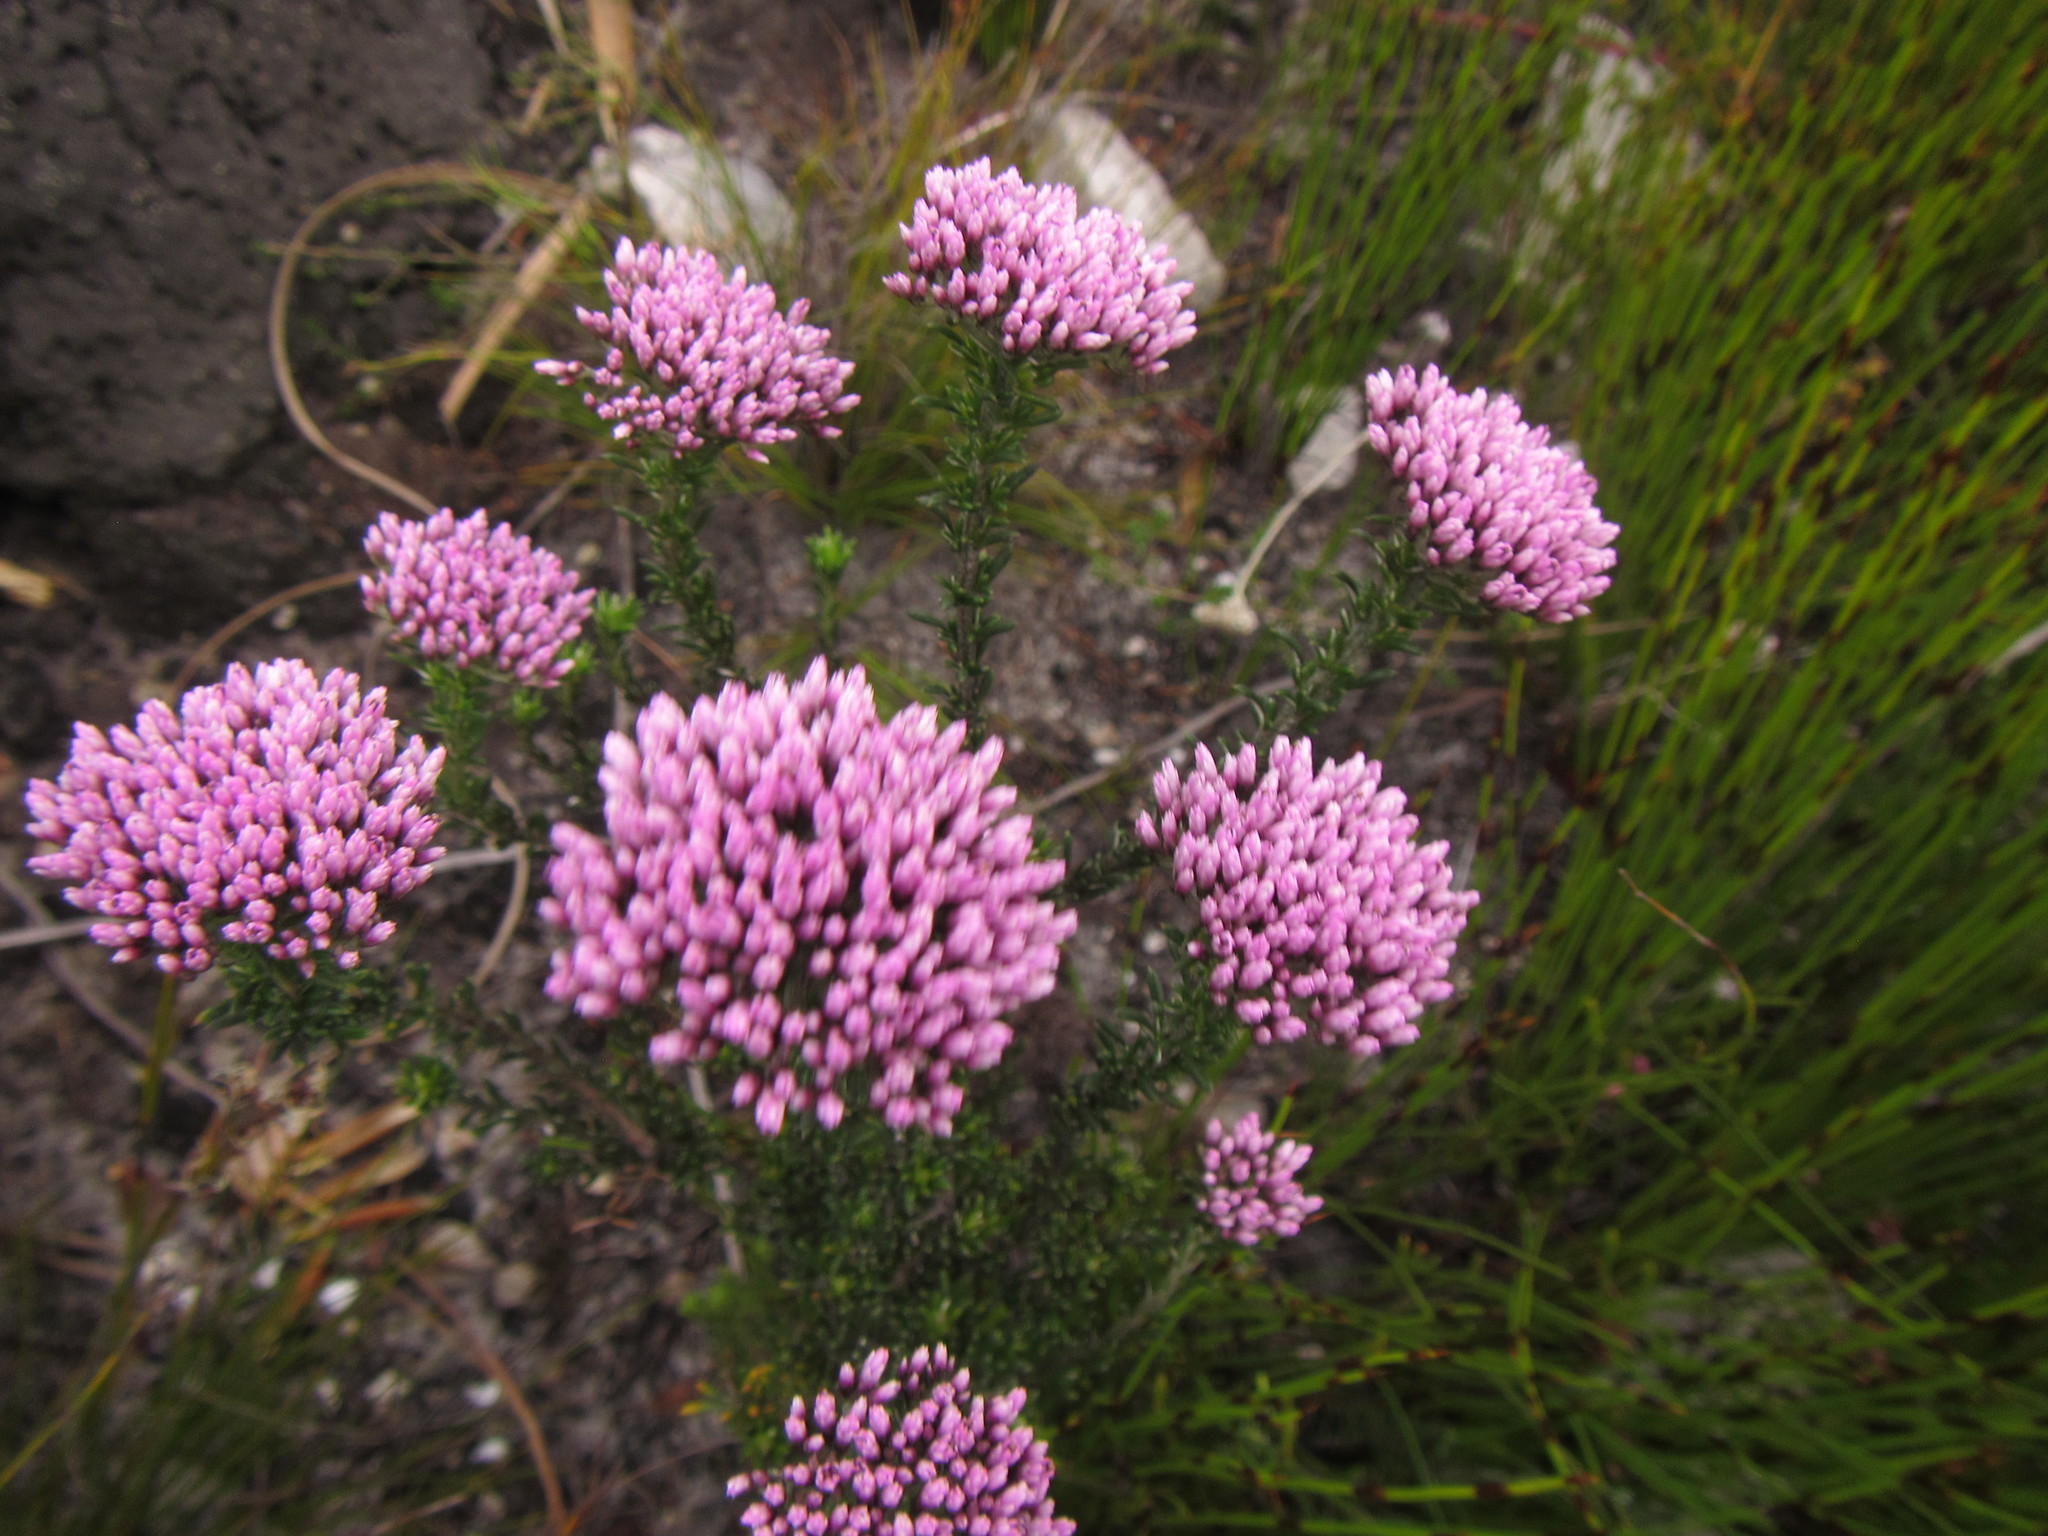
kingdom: Plantae
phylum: Tracheophyta
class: Magnoliopsida
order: Asterales
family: Asteraceae
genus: Metalasia
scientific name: Metalasia erubescens
